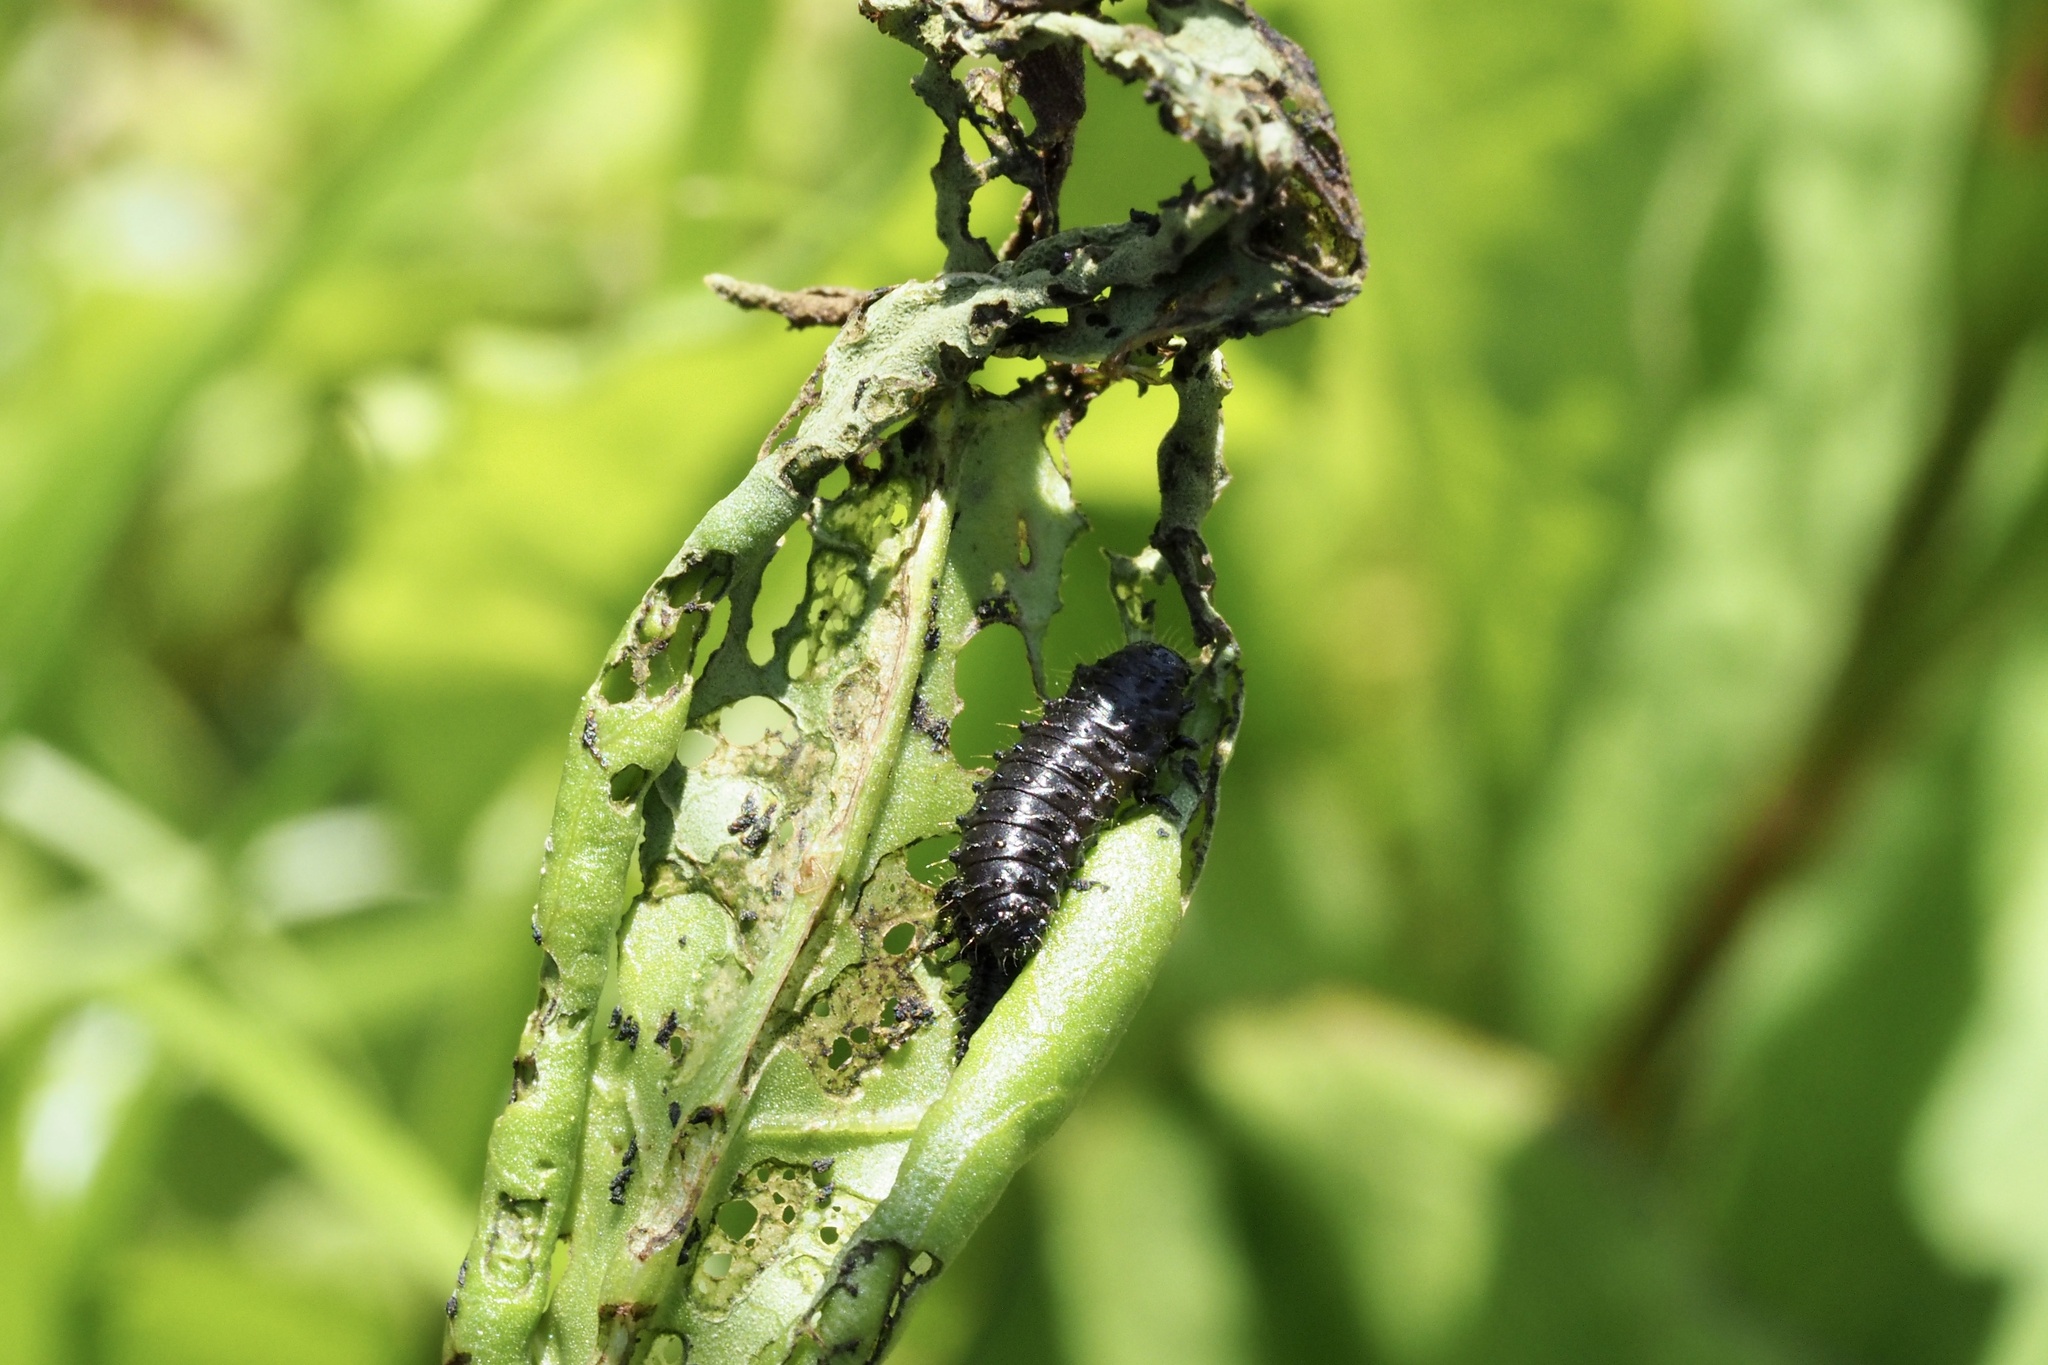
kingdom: Animalia
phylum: Arthropoda
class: Insecta
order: Coleoptera
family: Chrysomelidae
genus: Gastrophysa
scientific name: Gastrophysa atrocyanea
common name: Leaf beetle
